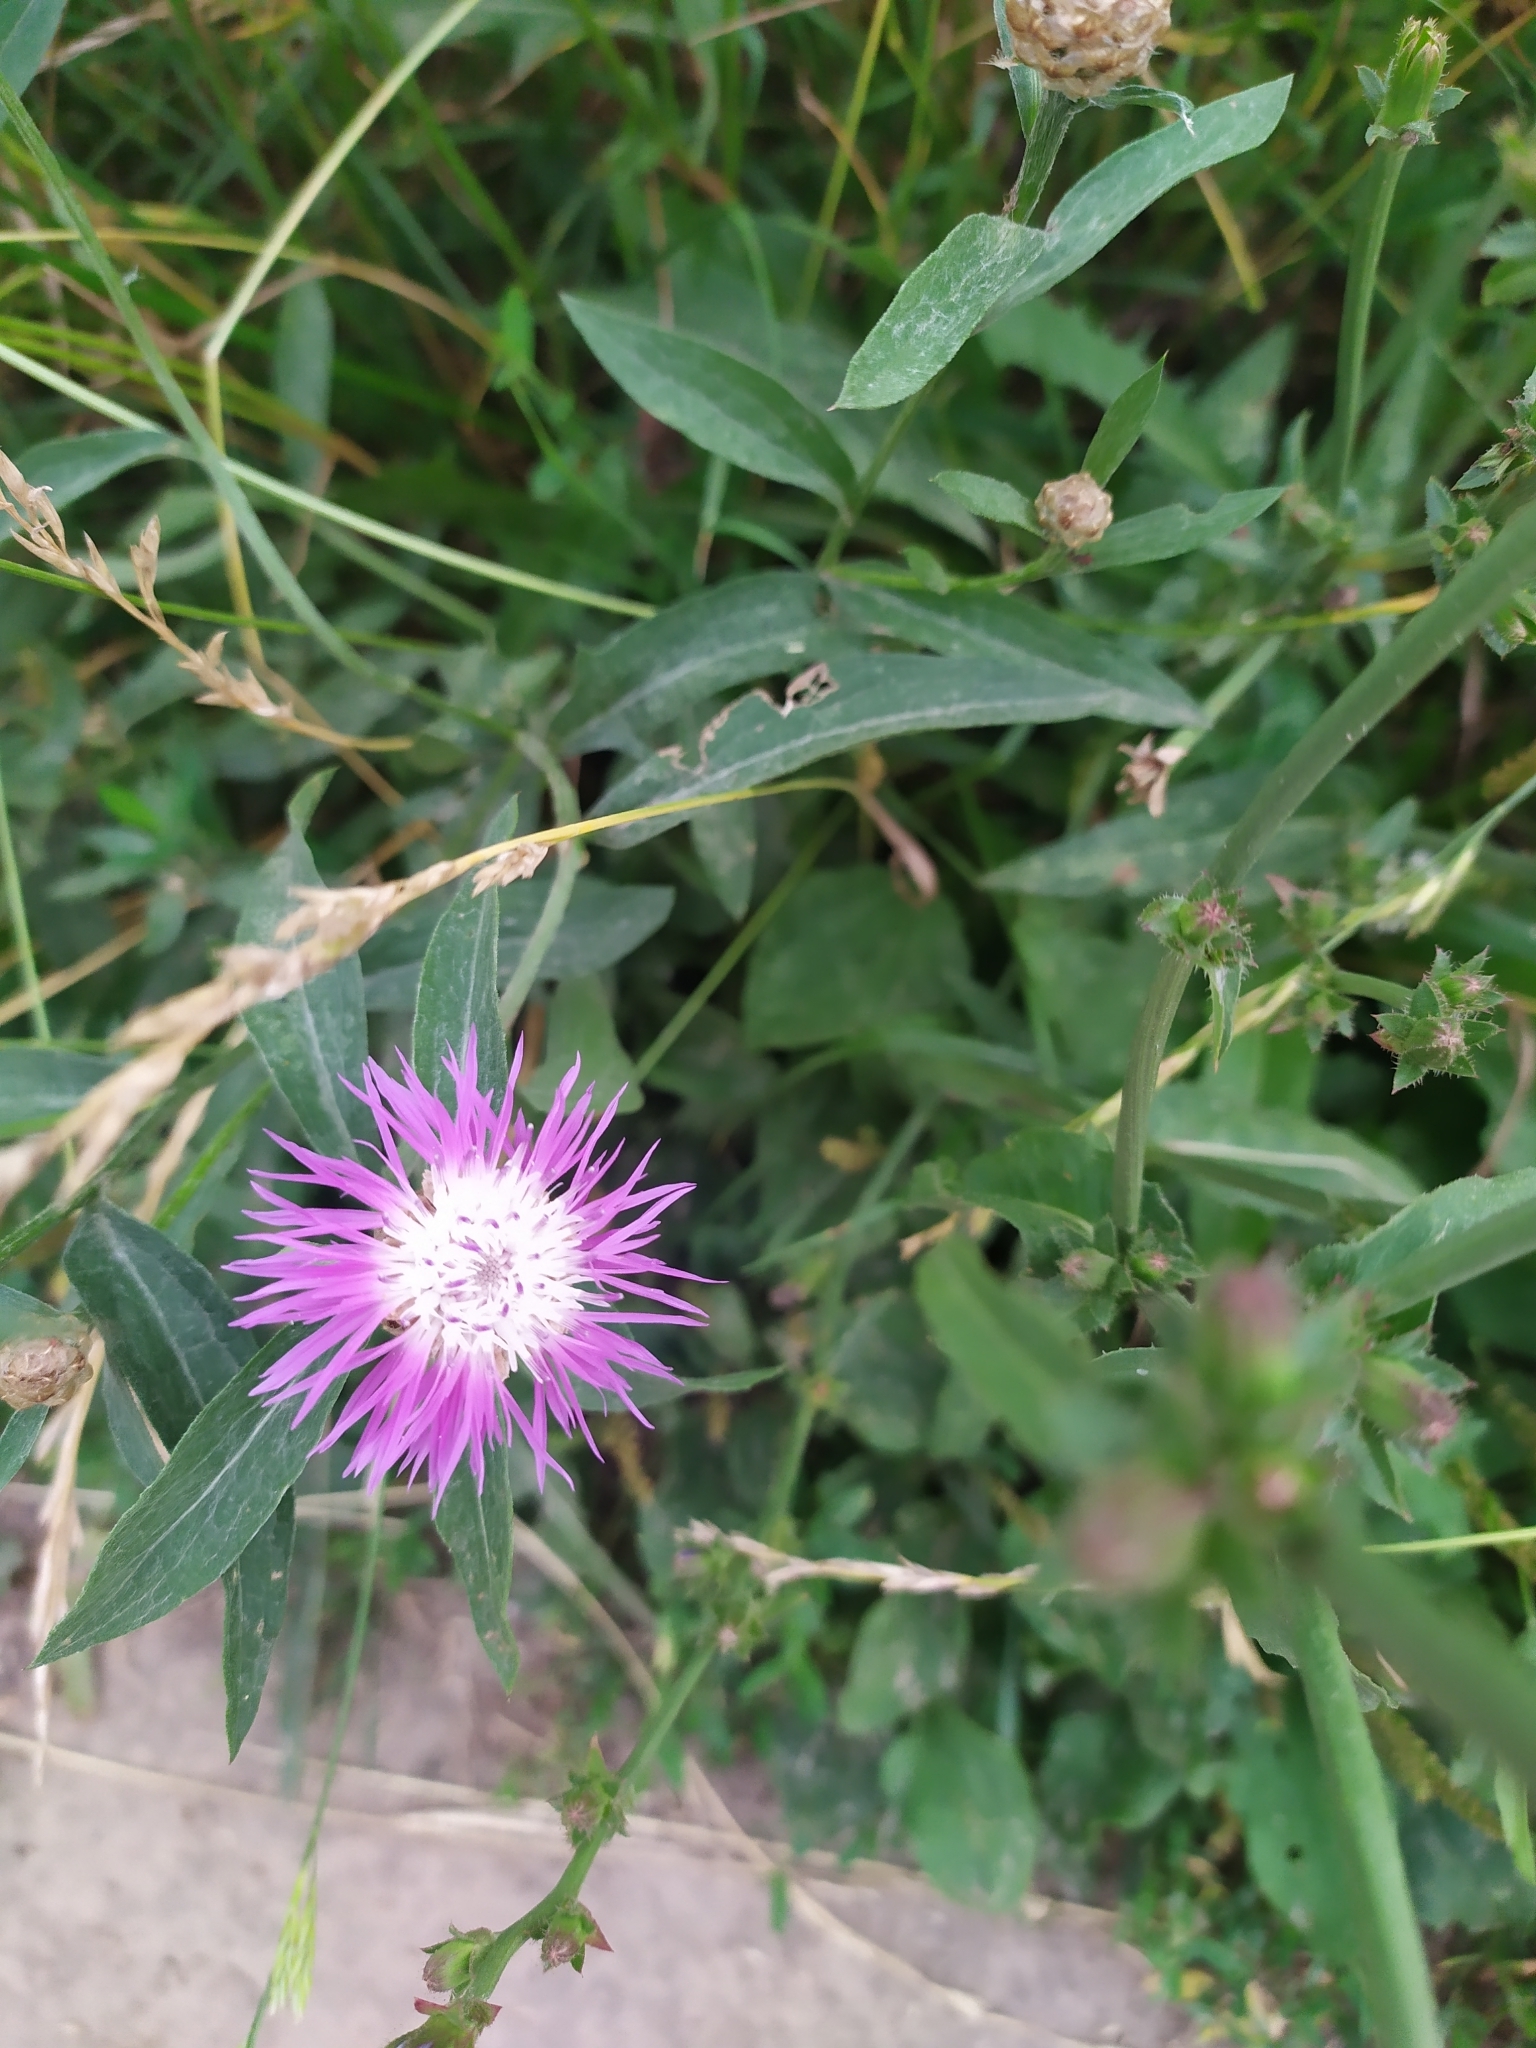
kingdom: Plantae
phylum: Tracheophyta
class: Magnoliopsida
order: Asterales
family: Asteraceae
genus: Centaurea
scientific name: Centaurea jacea
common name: Brown knapweed
